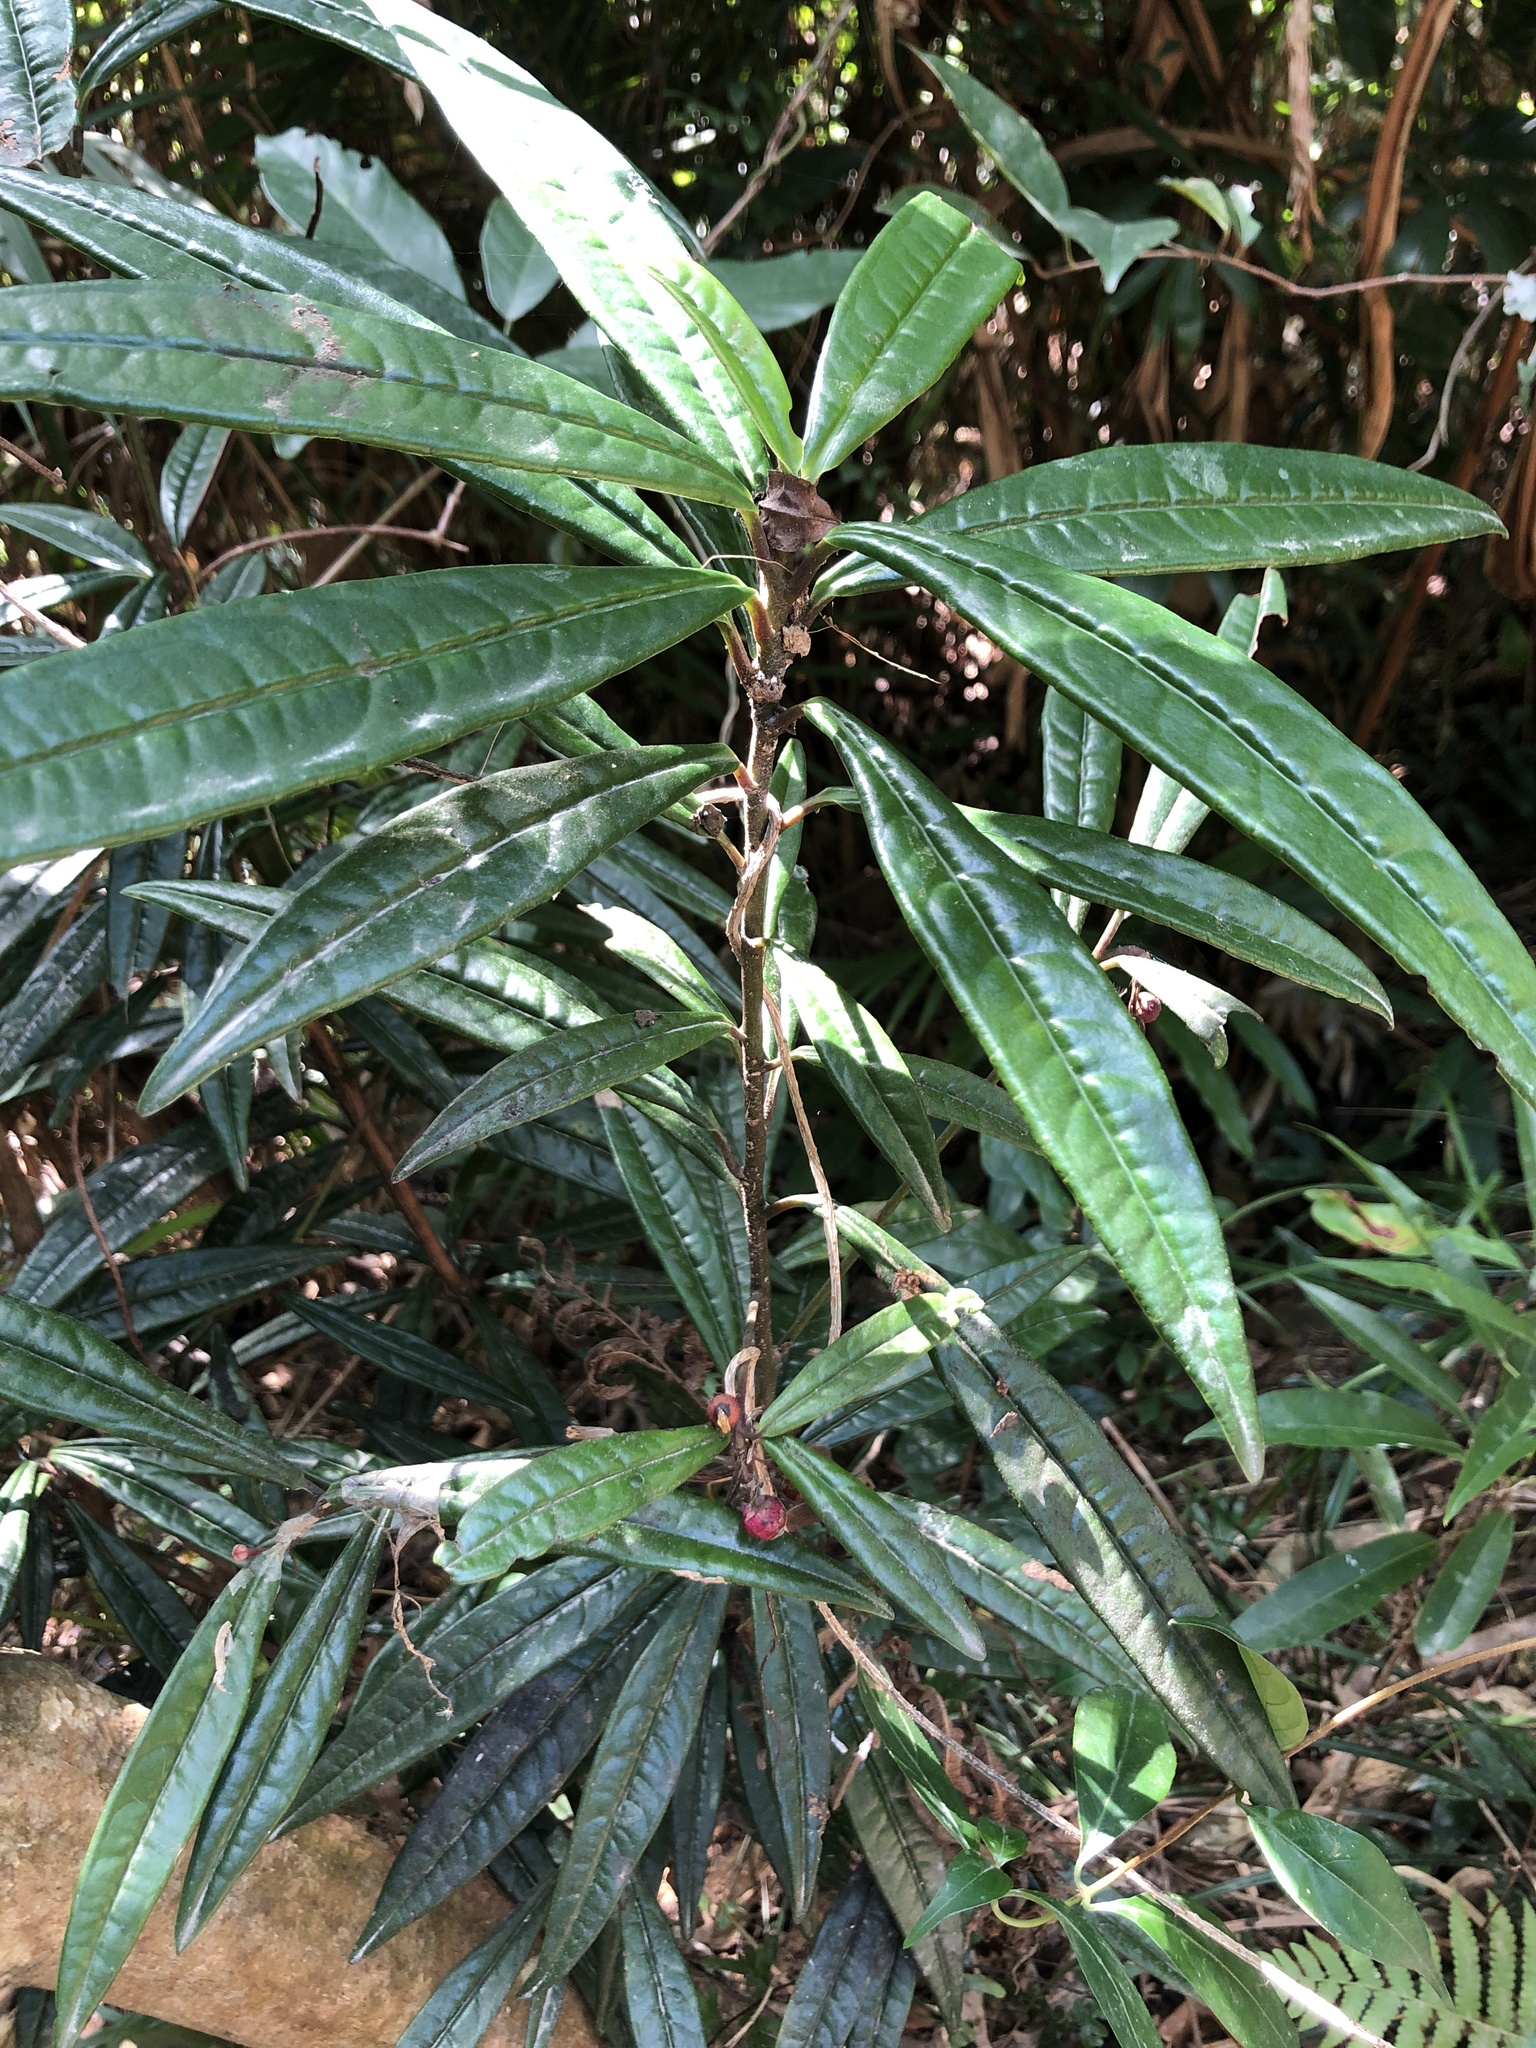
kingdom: Plantae
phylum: Tracheophyta
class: Magnoliopsida
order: Ericales
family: Primulaceae
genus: Ardisia
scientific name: Ardisia lindleyana
